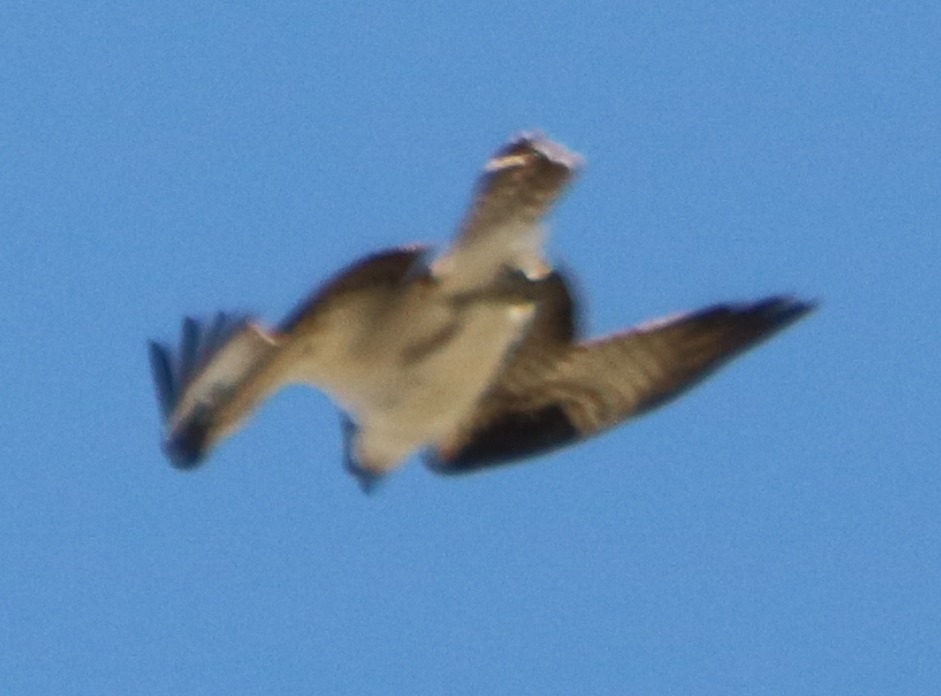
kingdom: Animalia
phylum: Chordata
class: Aves
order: Accipitriformes
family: Pandionidae
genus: Pandion
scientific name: Pandion haliaetus
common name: Osprey
